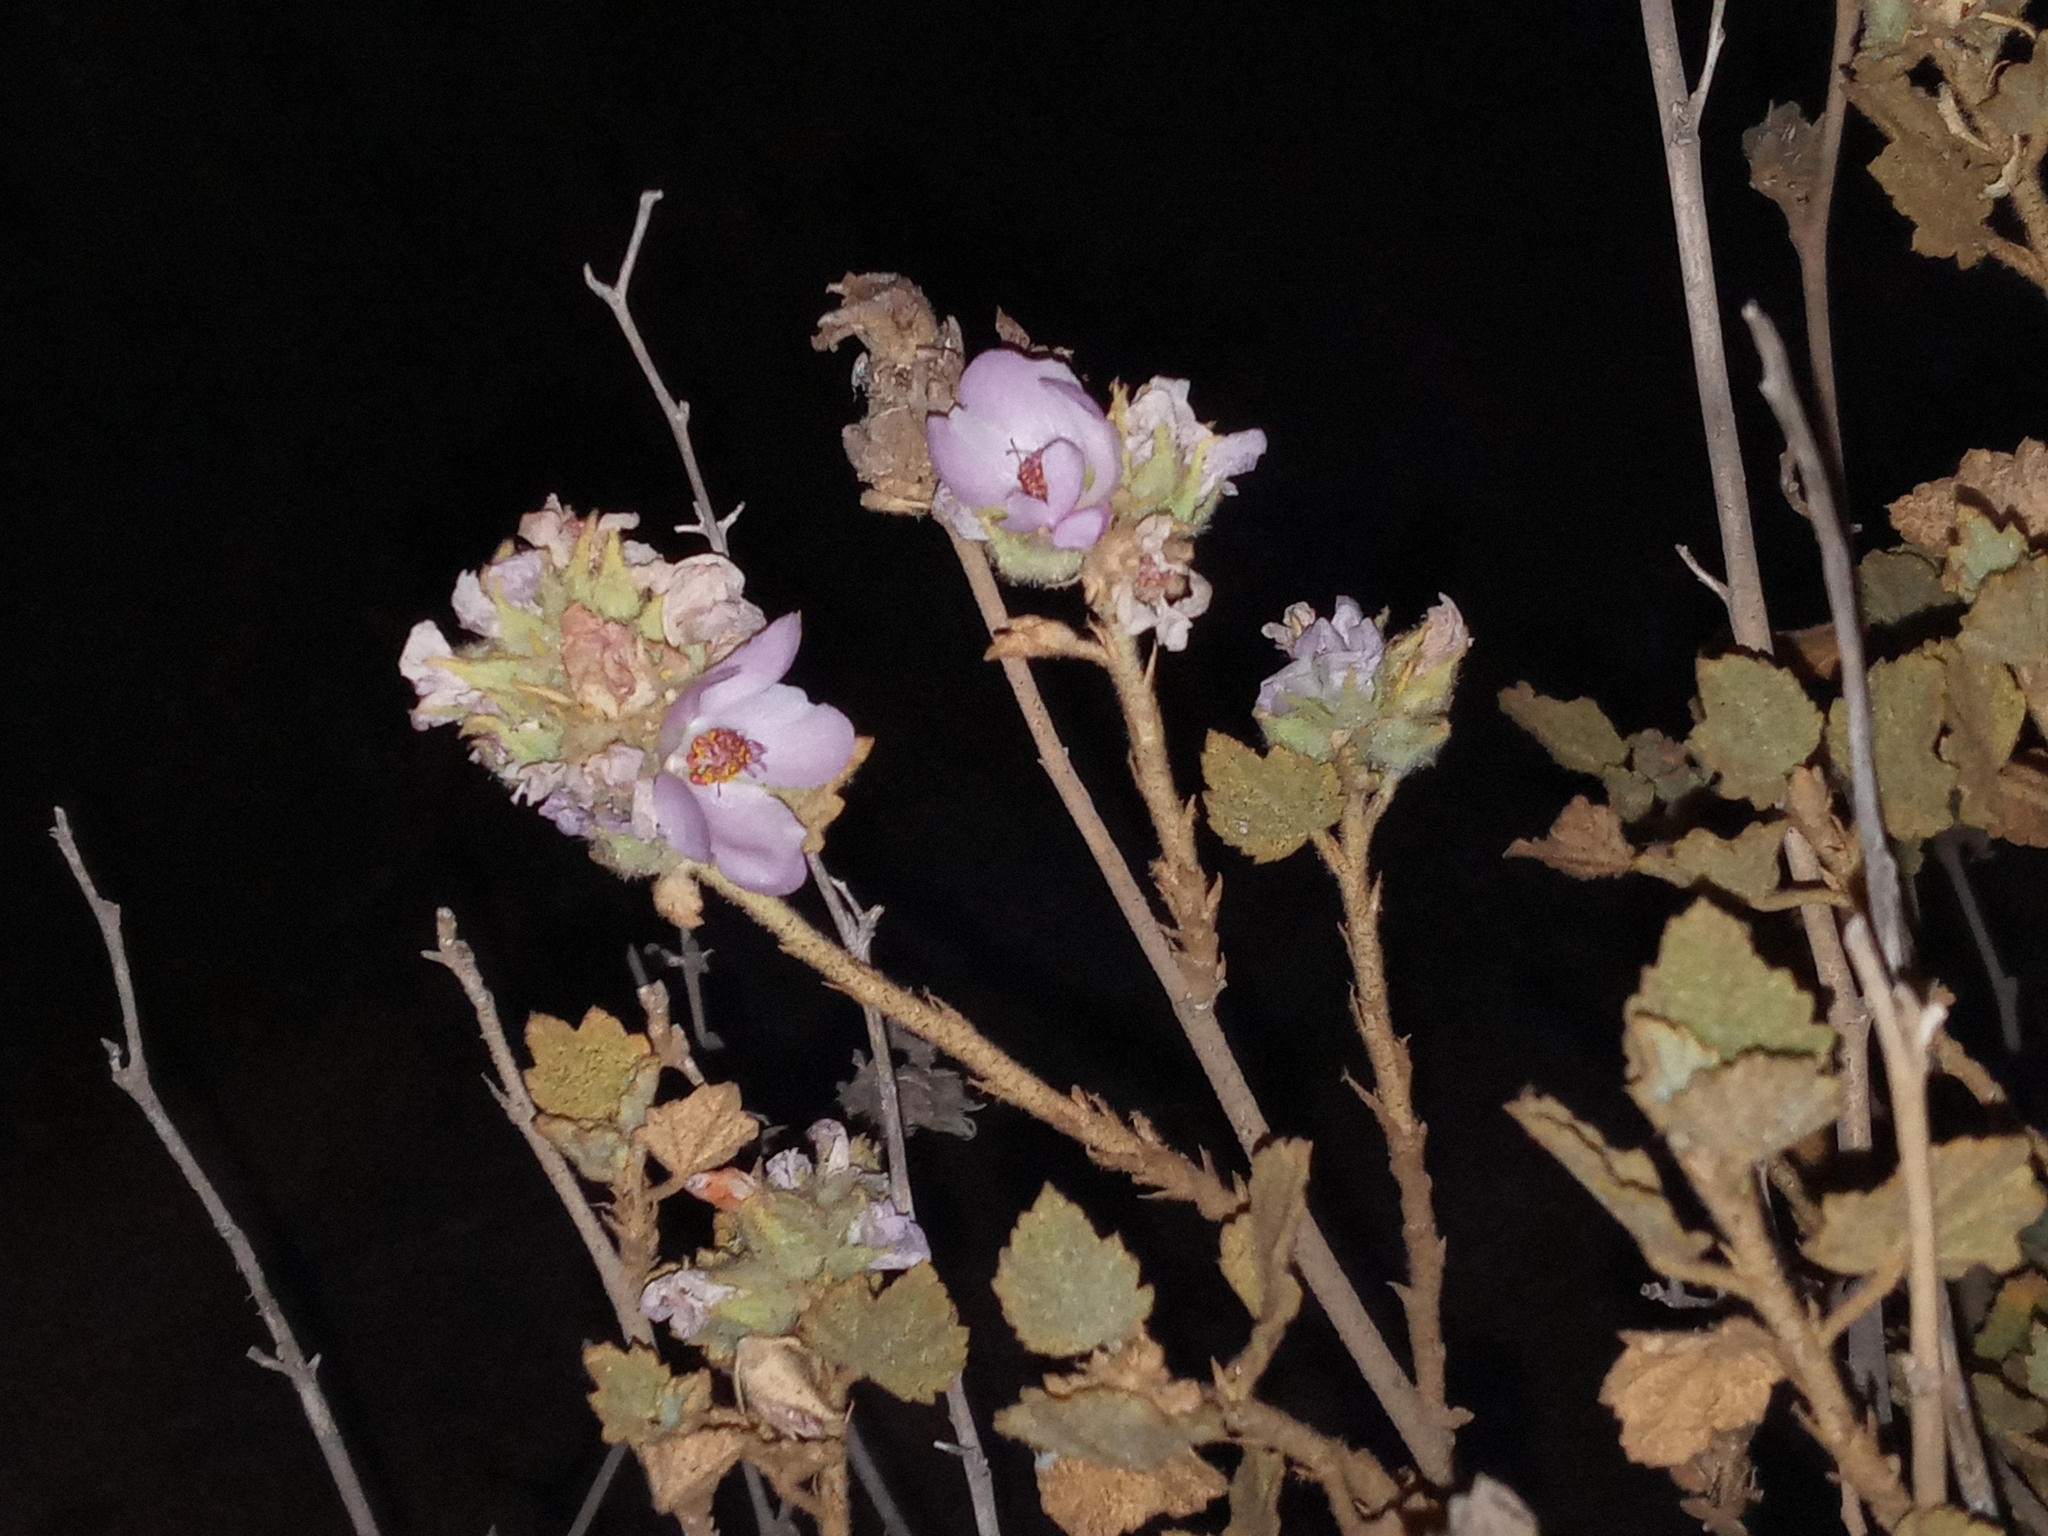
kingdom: Plantae
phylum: Tracheophyta
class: Magnoliopsida
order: Malvales
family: Malvaceae
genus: Malacothamnus
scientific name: Malacothamnus marrubioides
